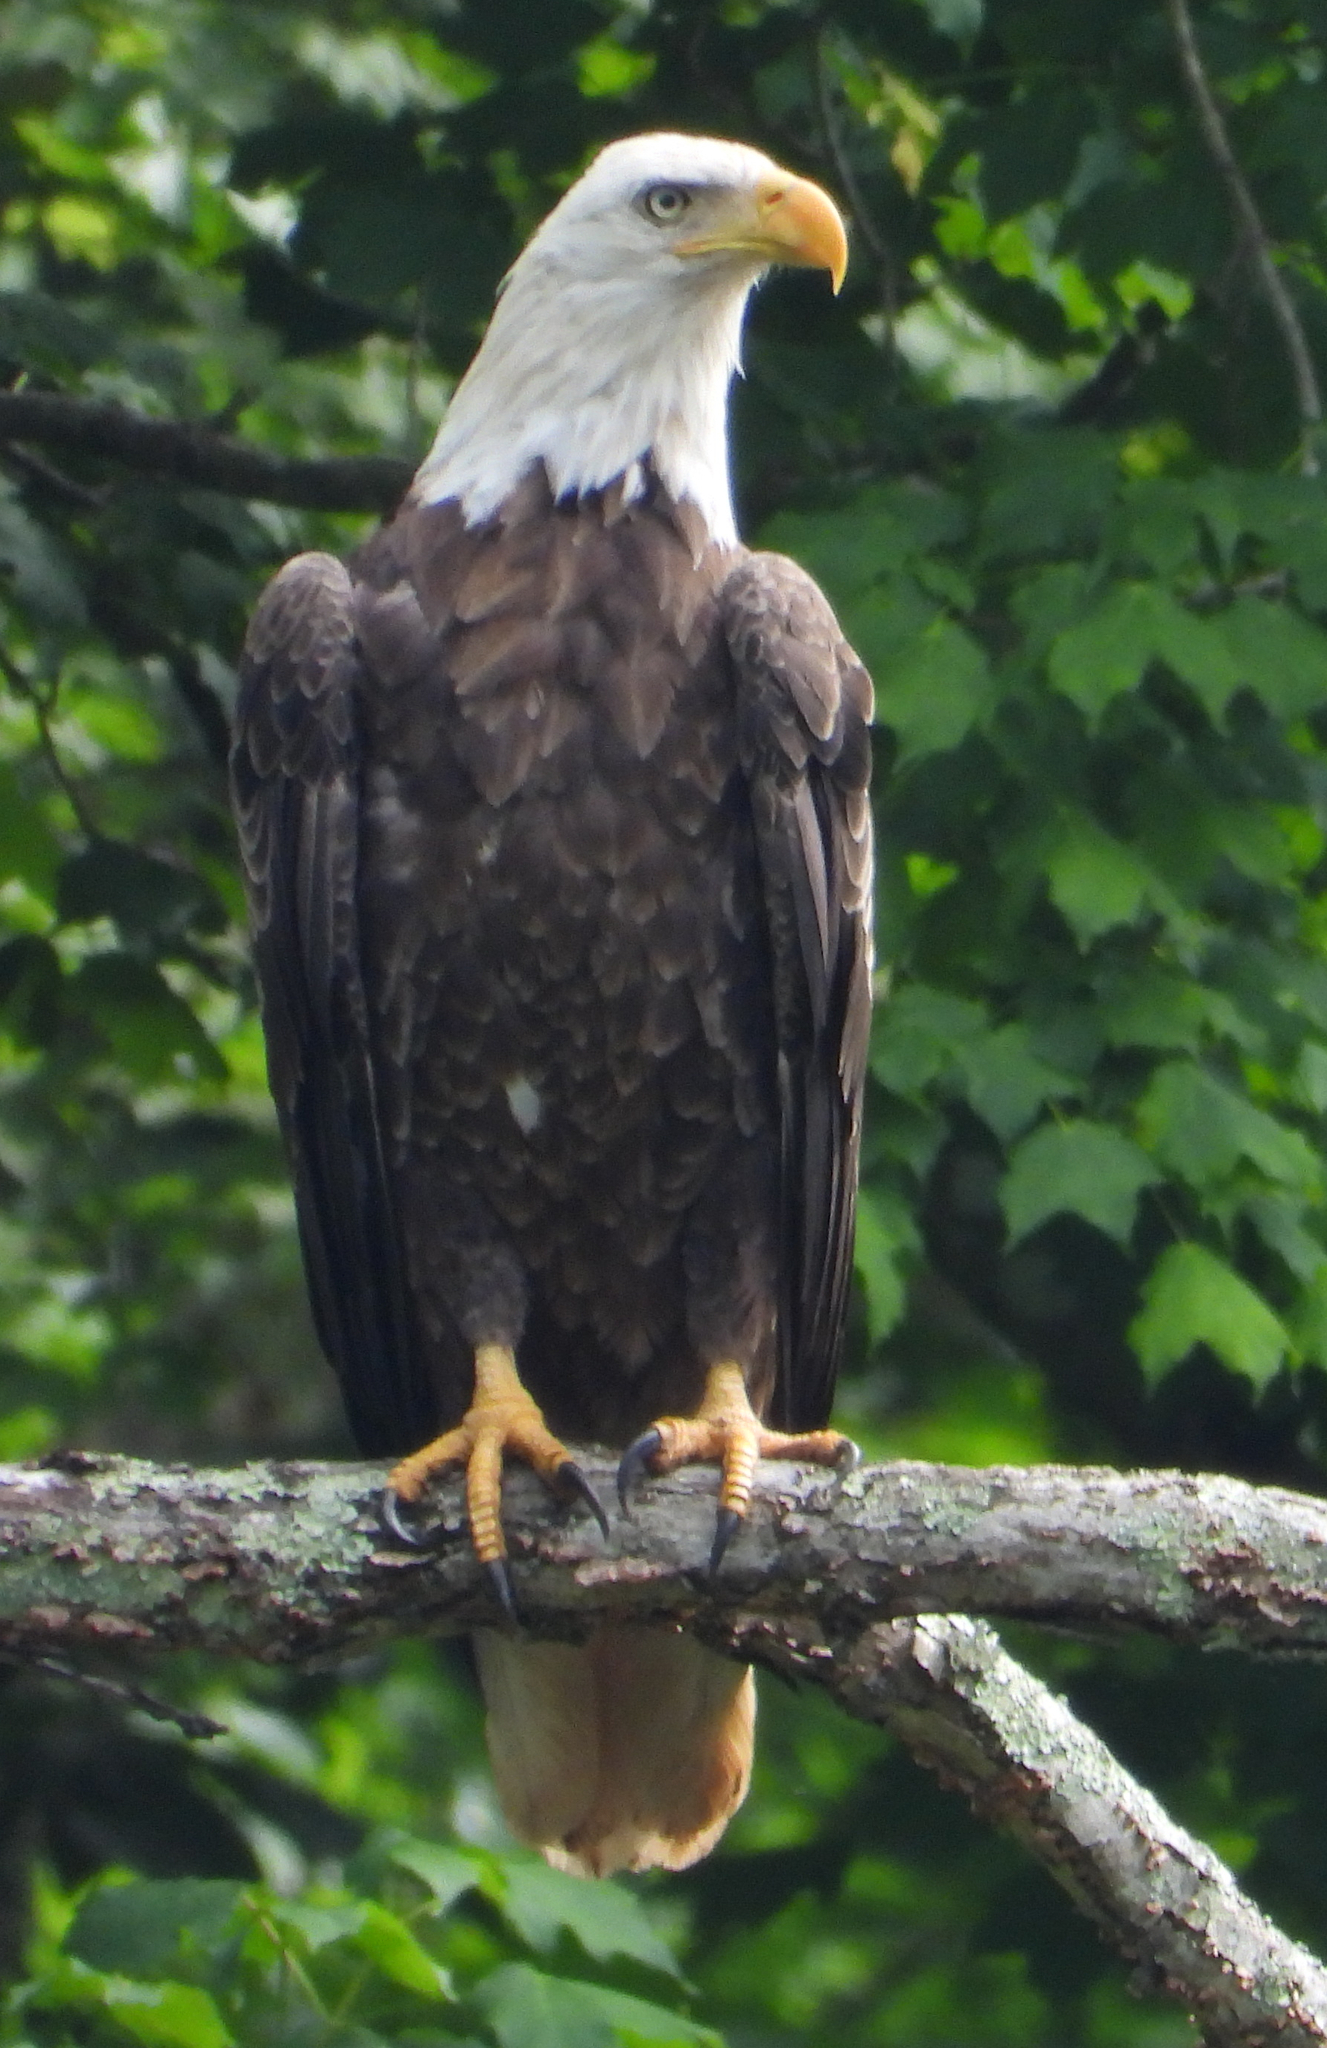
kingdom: Animalia
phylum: Chordata
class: Aves
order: Accipitriformes
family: Accipitridae
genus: Haliaeetus
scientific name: Haliaeetus leucocephalus
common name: Bald eagle
